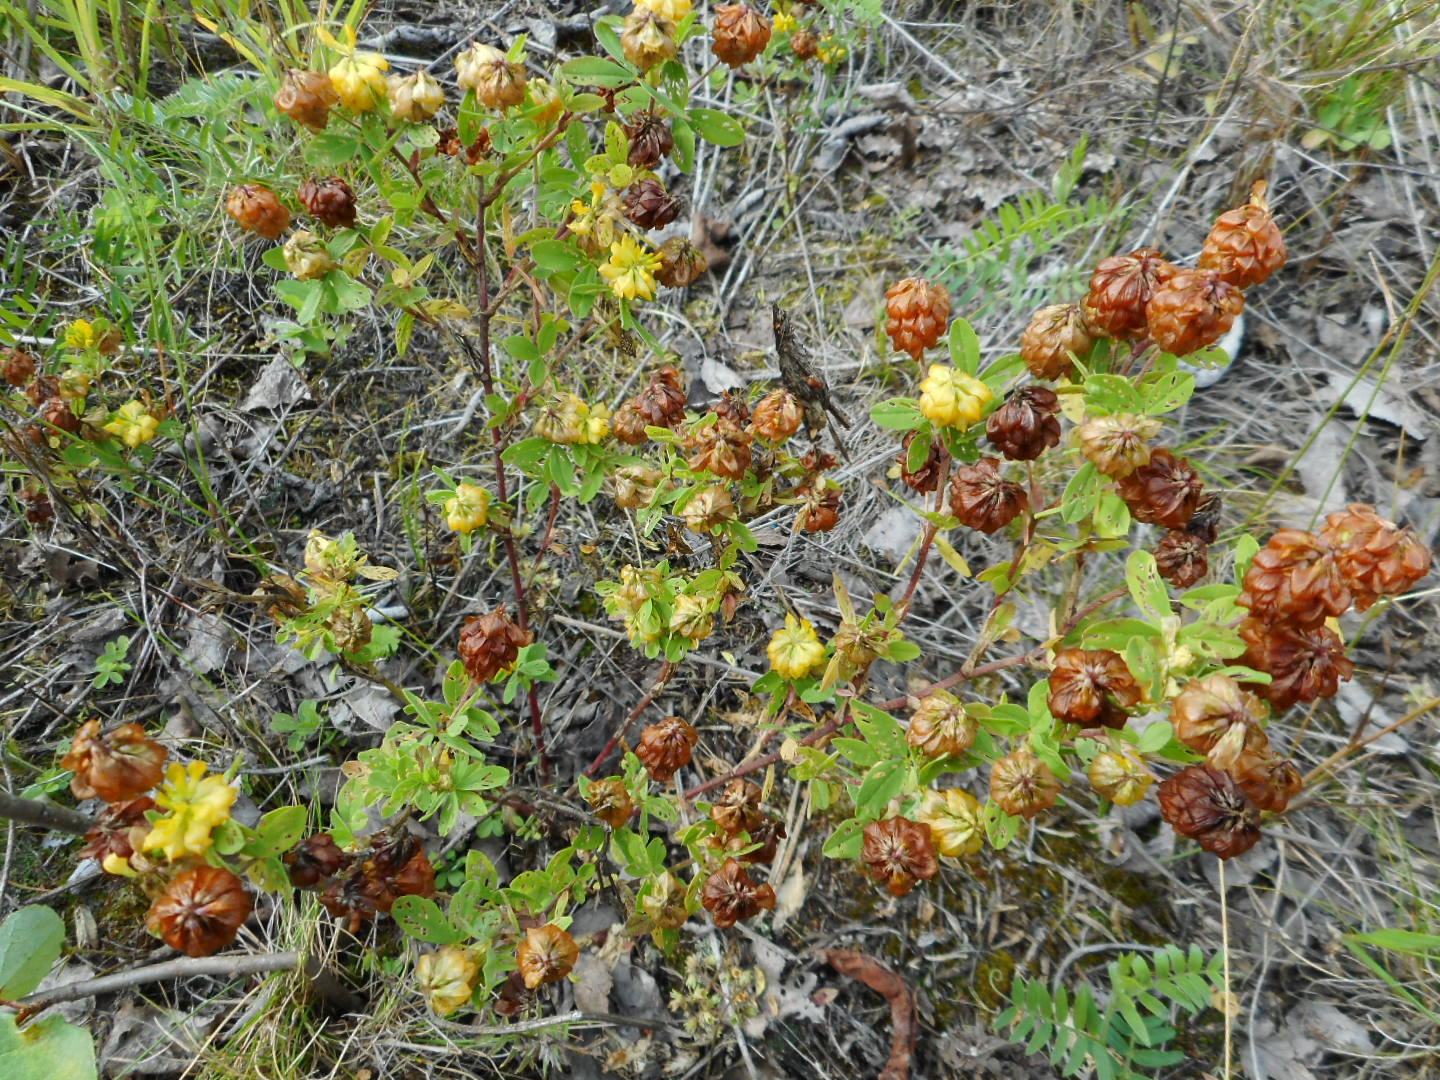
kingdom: Plantae
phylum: Tracheophyta
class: Magnoliopsida
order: Fabales
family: Fabaceae
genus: Trifolium
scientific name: Trifolium aureum
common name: Golden clover
